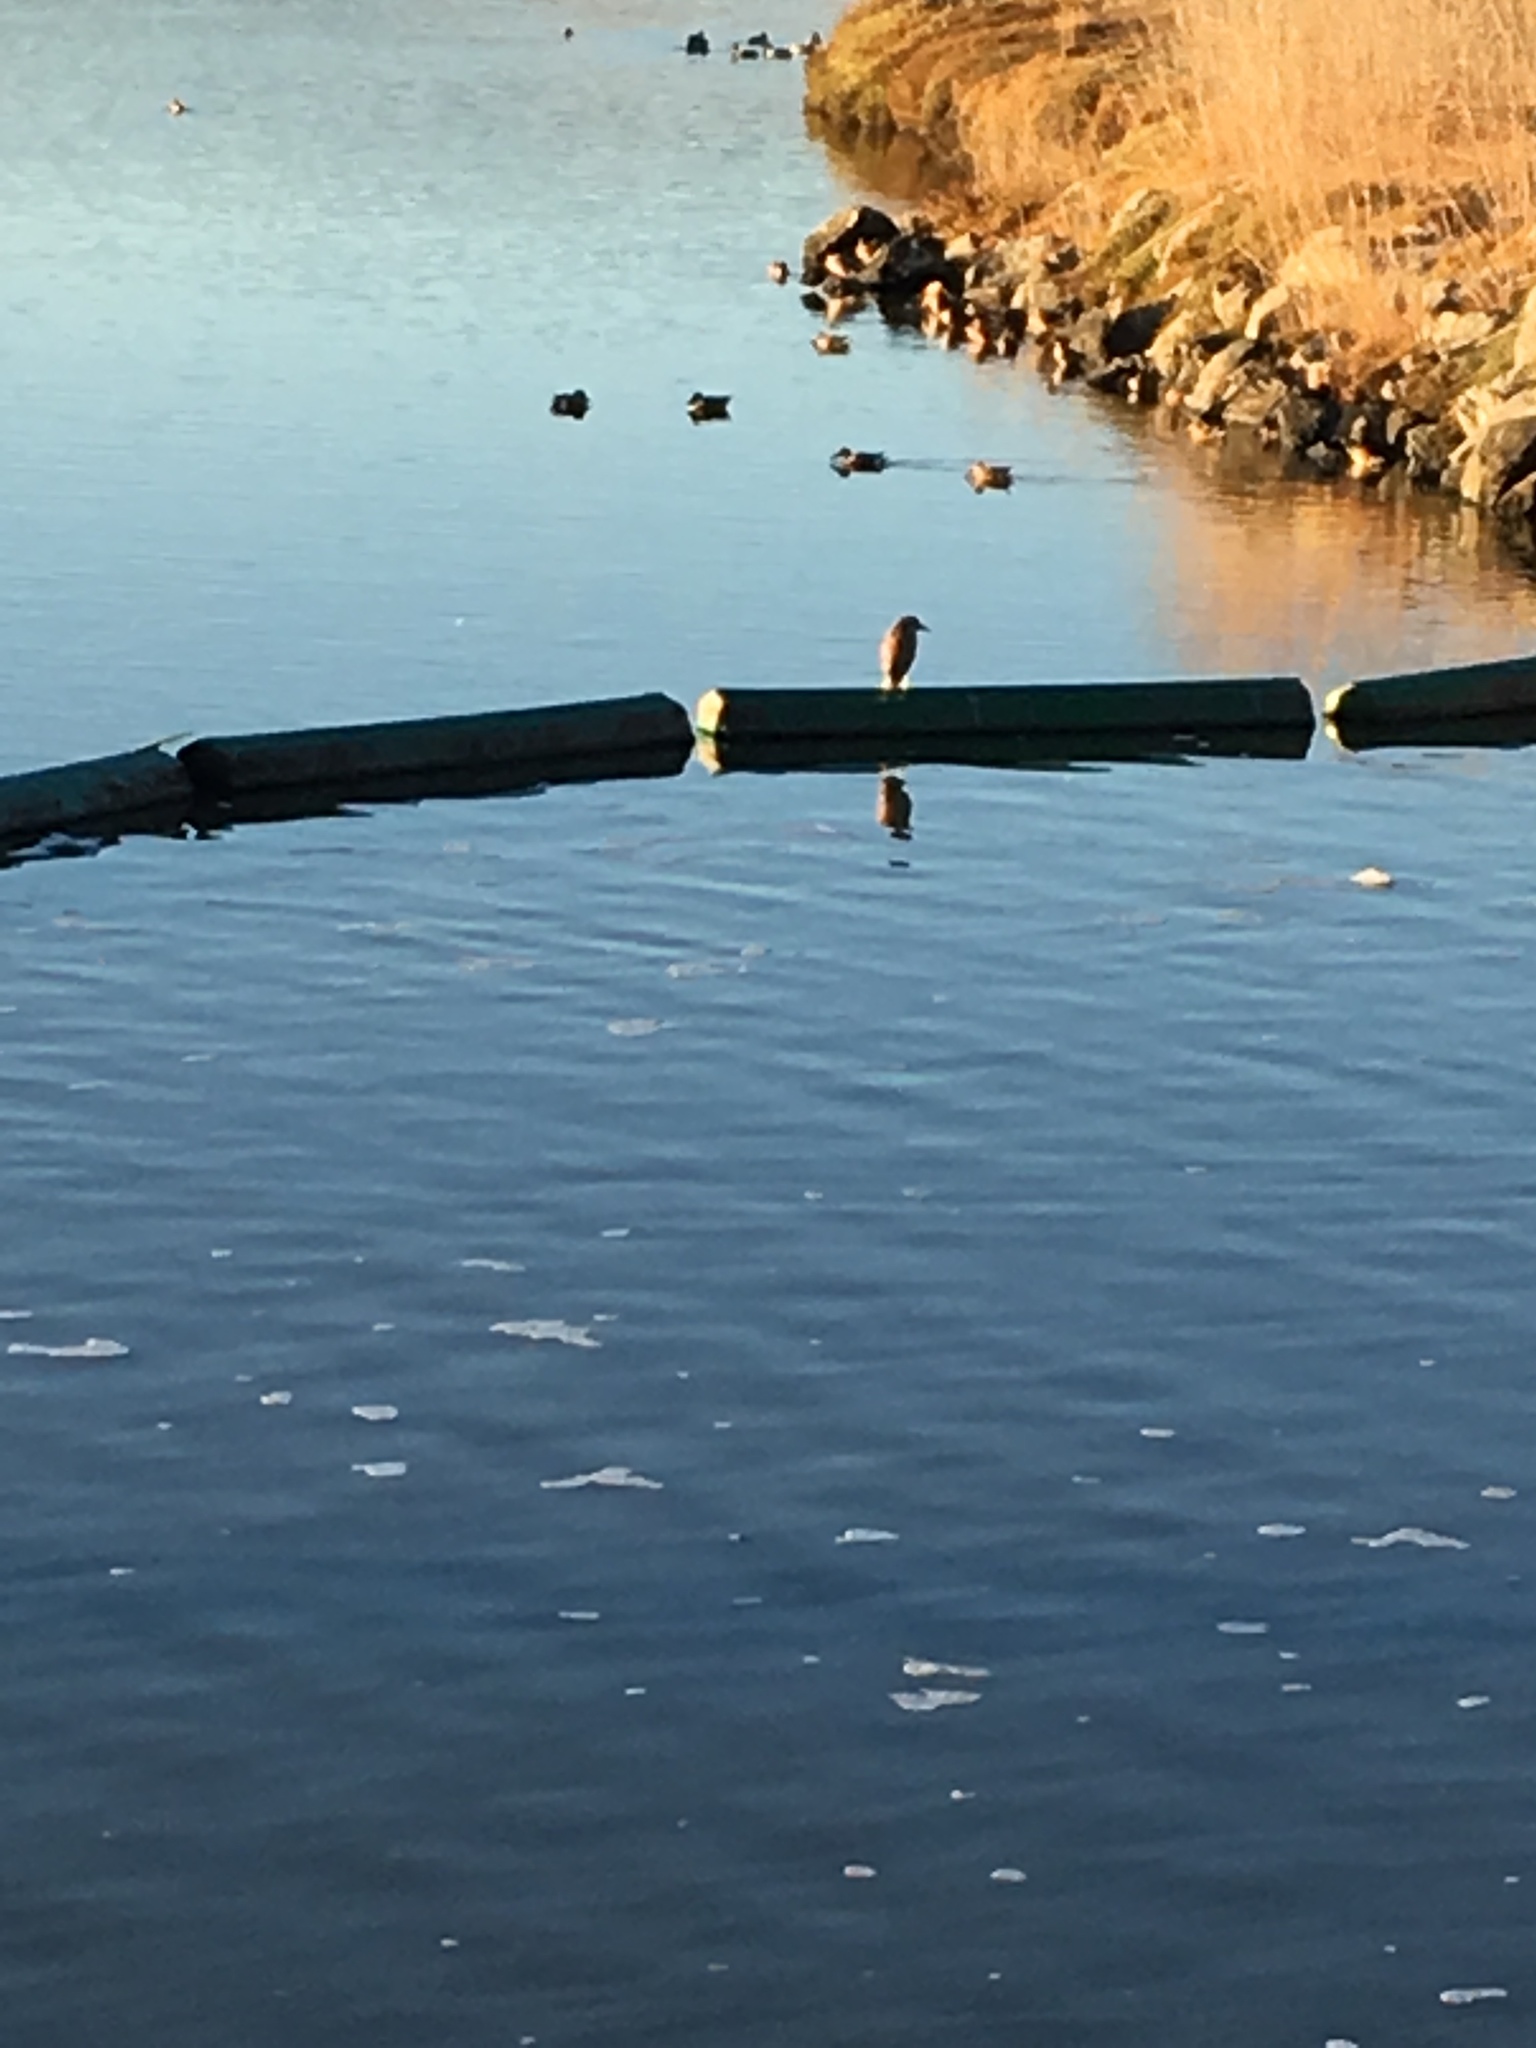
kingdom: Animalia
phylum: Chordata
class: Aves
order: Pelecaniformes
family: Ardeidae
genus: Nycticorax
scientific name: Nycticorax nycticorax
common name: Black-crowned night heron
